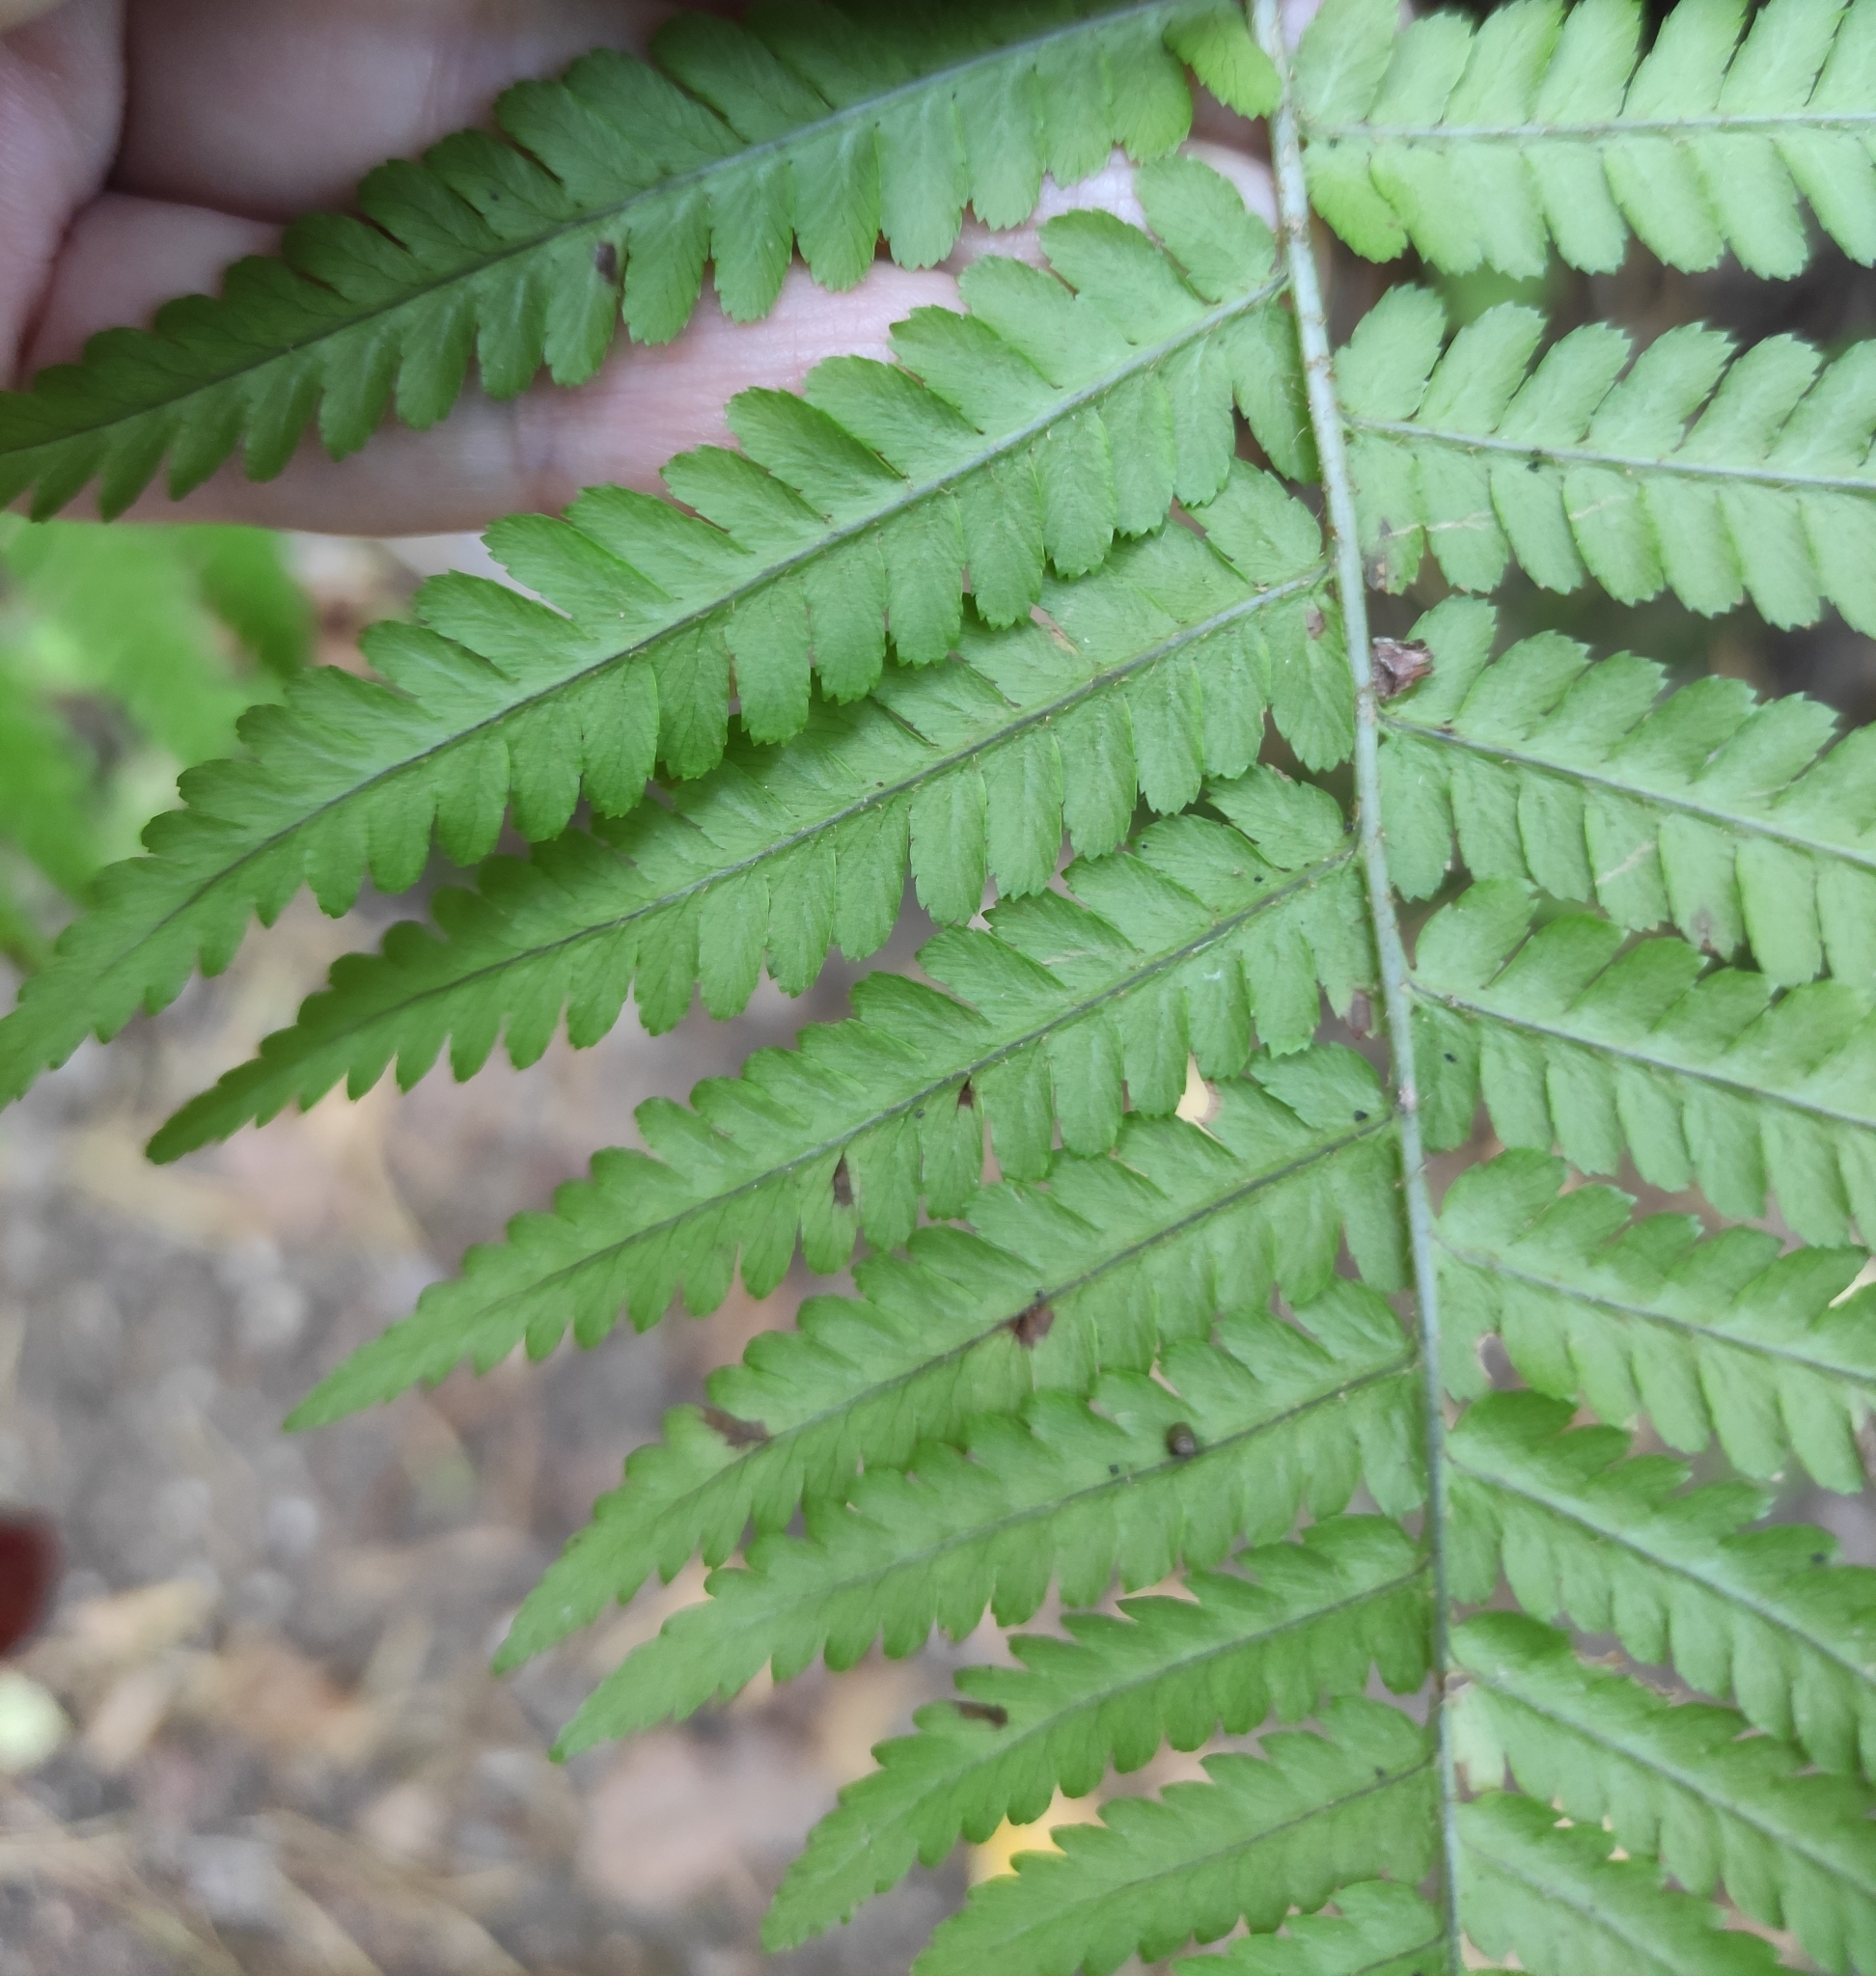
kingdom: Plantae
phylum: Tracheophyta
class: Polypodiopsida
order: Polypodiales
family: Dryopteridaceae
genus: Dryopteris
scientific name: Dryopteris filix-mas
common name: Male fern
